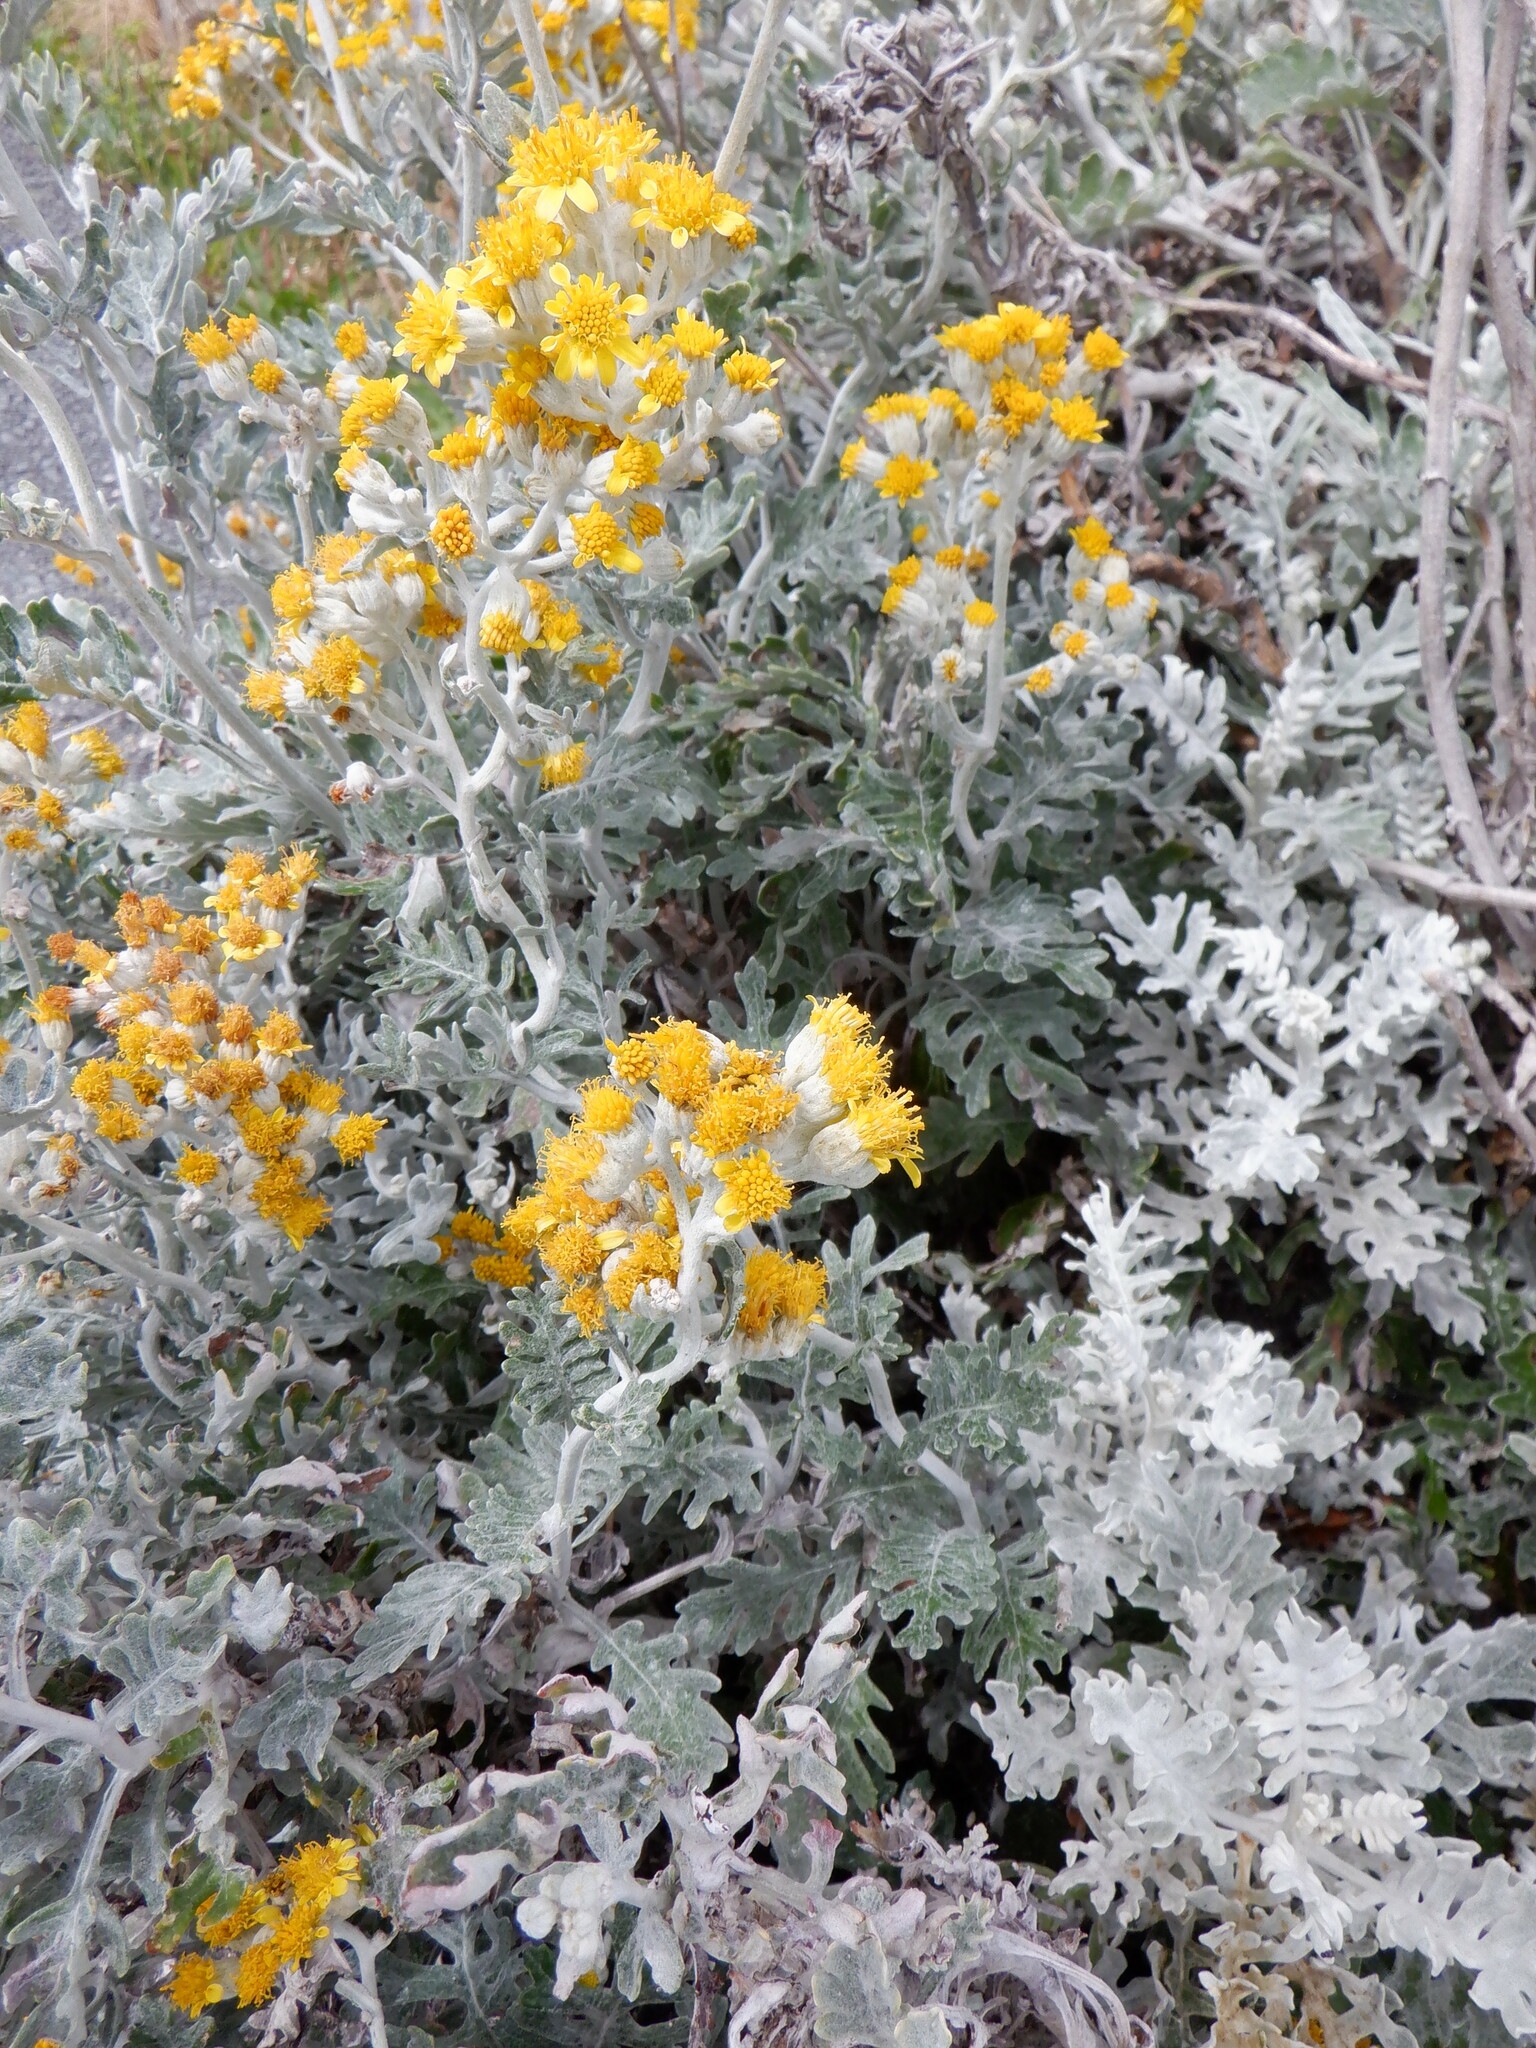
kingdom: Plantae
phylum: Tracheophyta
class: Magnoliopsida
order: Asterales
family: Asteraceae
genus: Jacobaea
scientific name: Jacobaea maritima
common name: Silver ragwort
